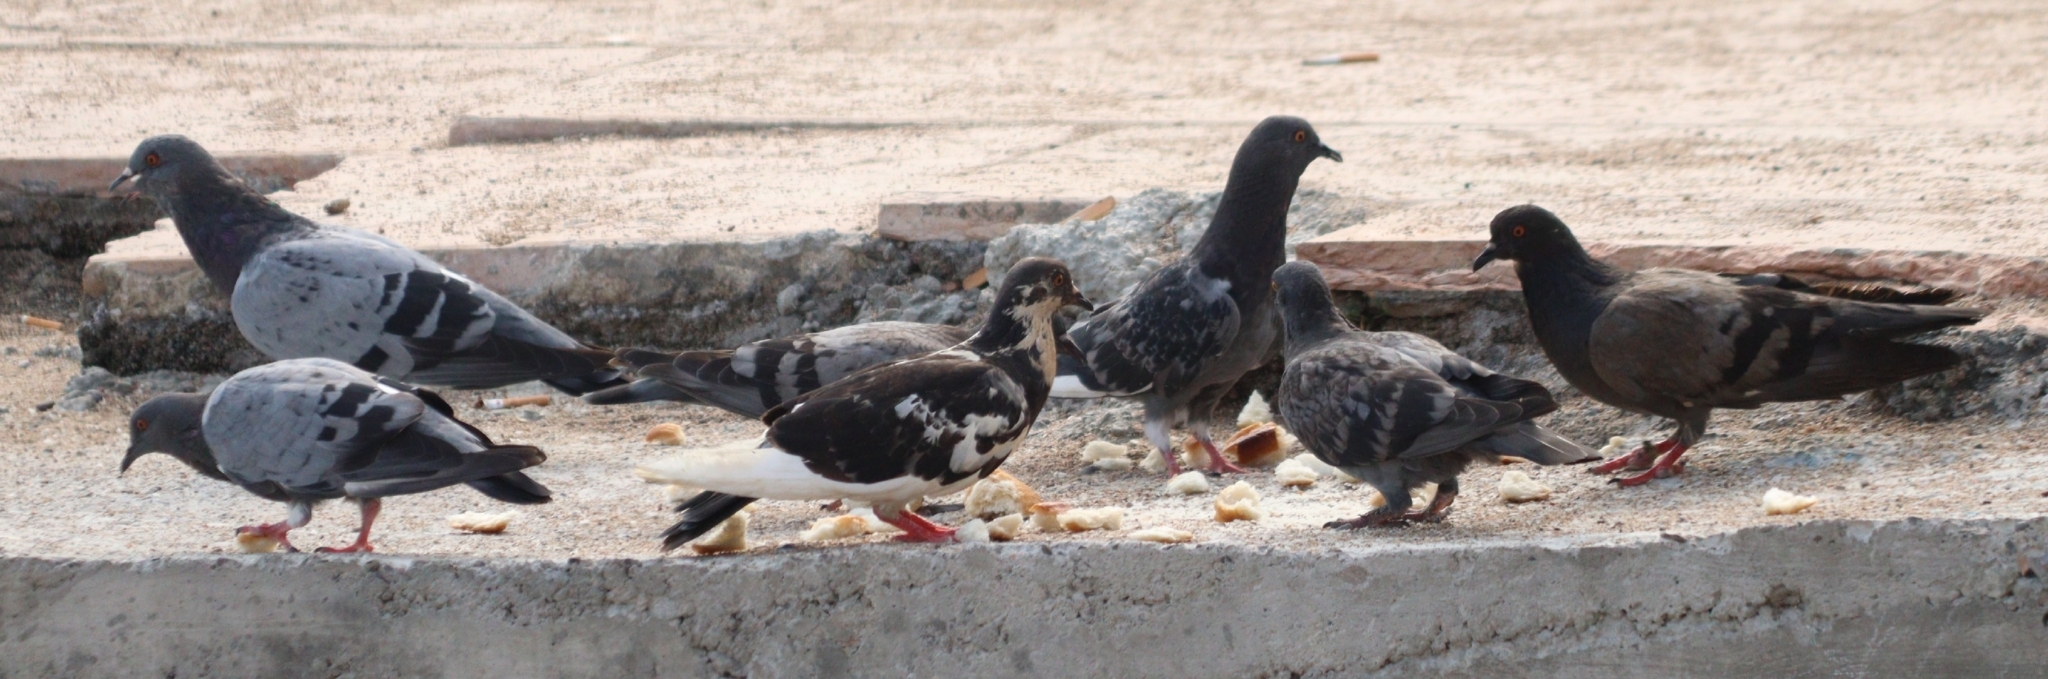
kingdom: Animalia
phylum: Chordata
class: Aves
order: Columbiformes
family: Columbidae
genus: Columba
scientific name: Columba livia
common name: Rock pigeon
